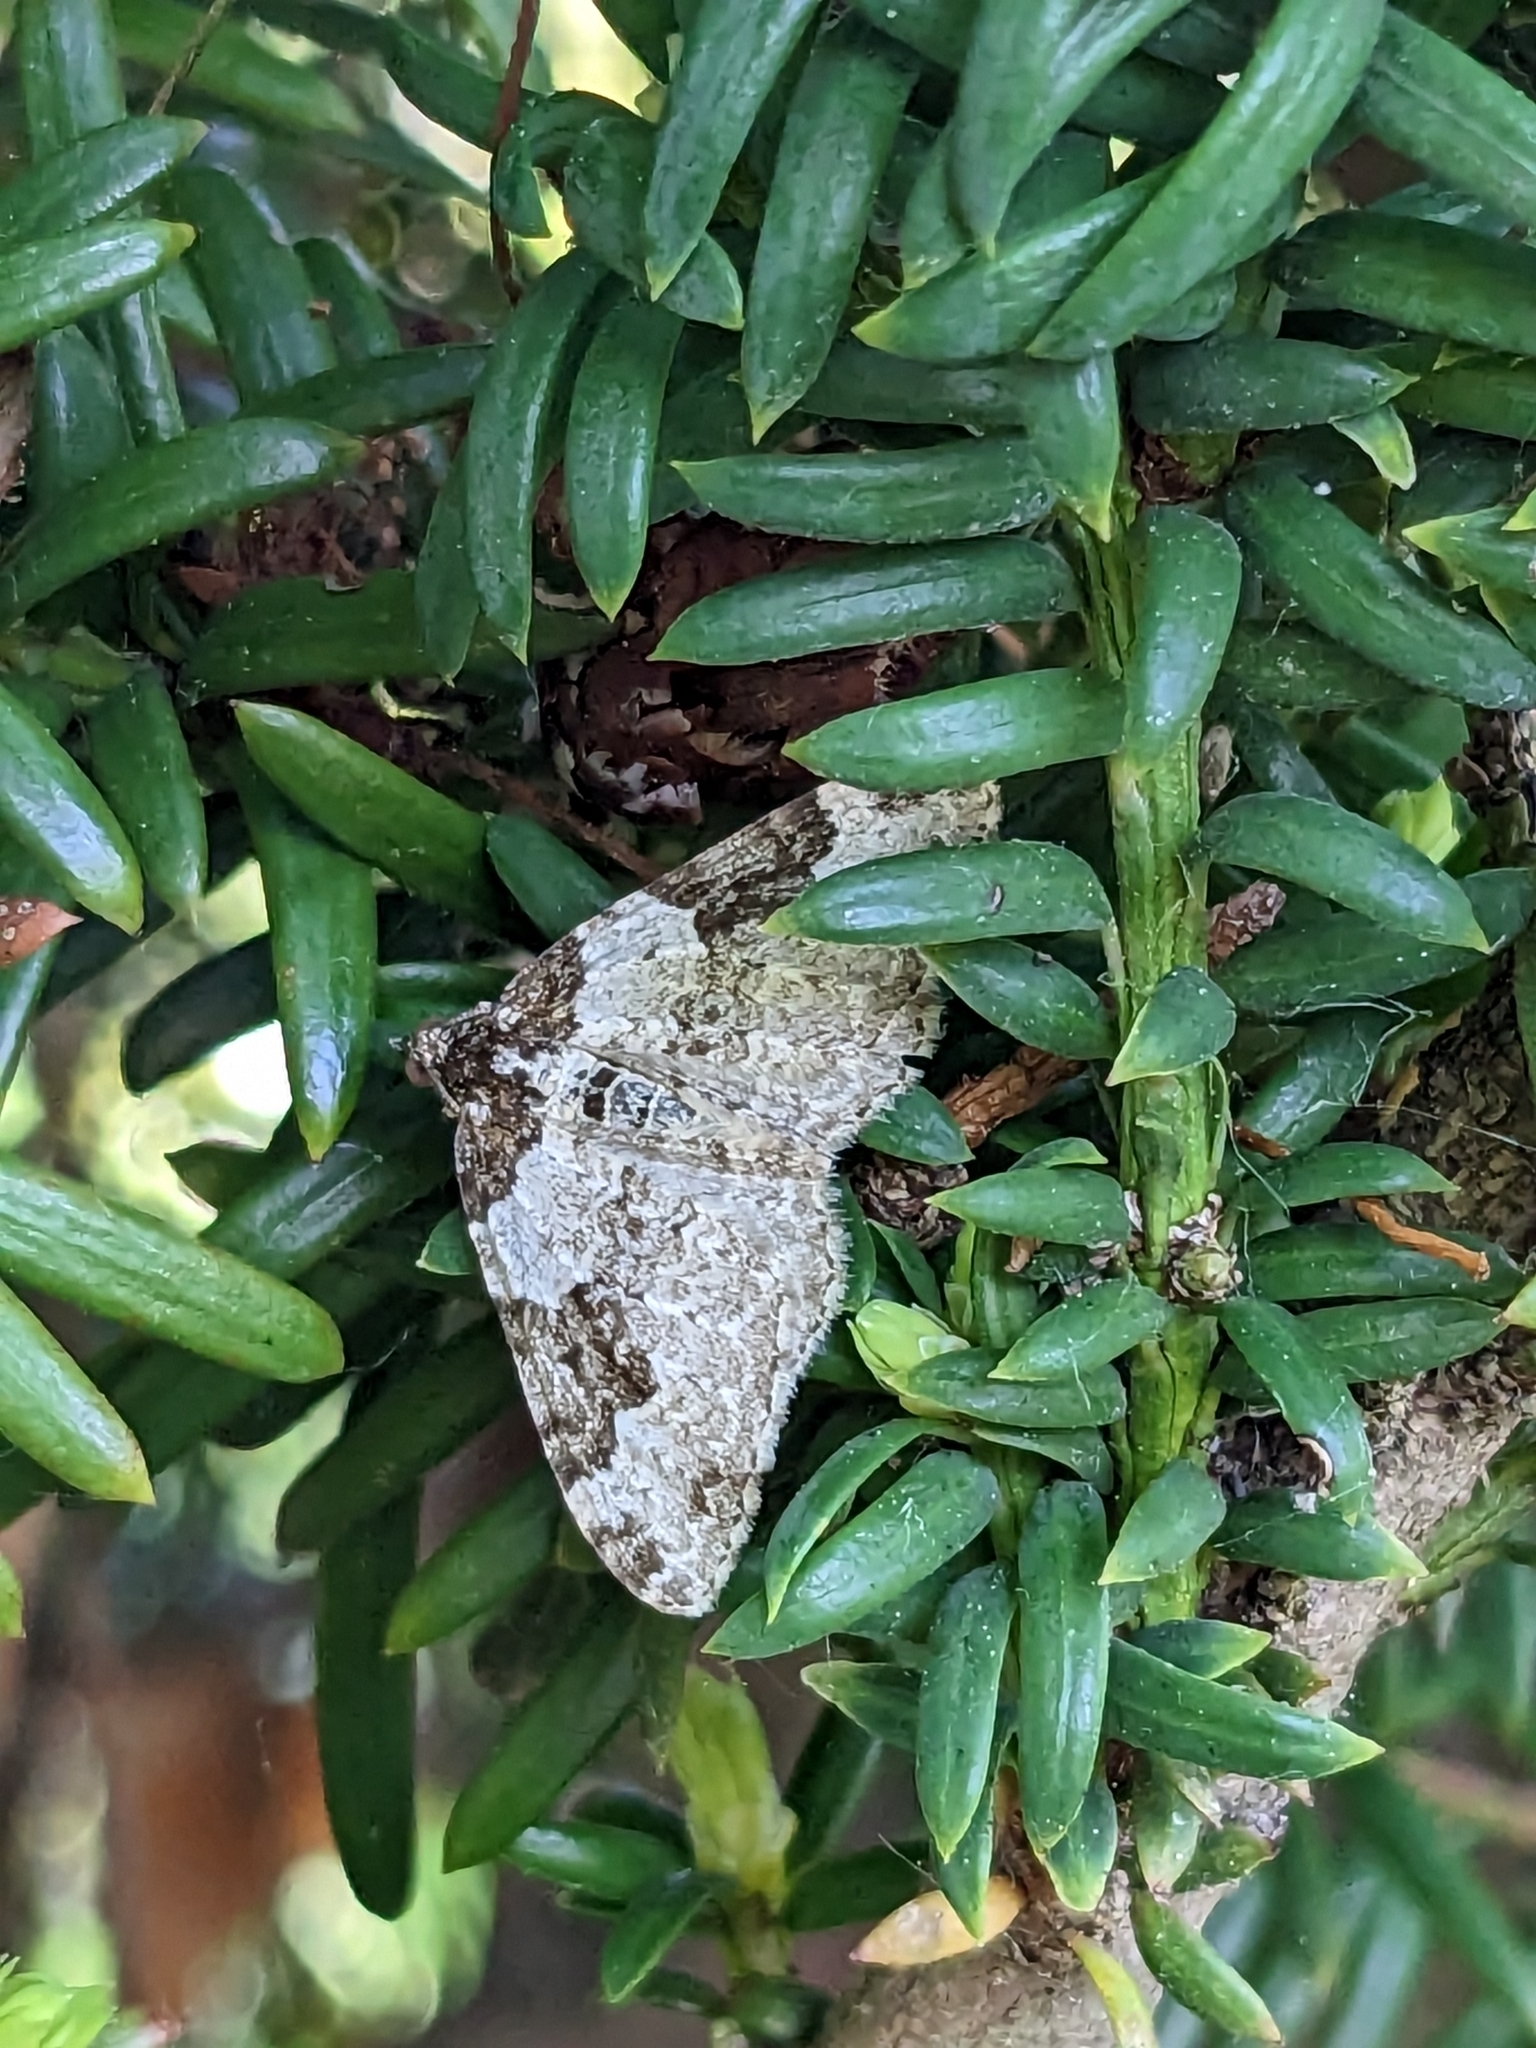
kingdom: Animalia
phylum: Arthropoda
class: Insecta
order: Lepidoptera
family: Geometridae
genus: Xanthorhoe
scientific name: Xanthorhoe fluctuata
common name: Garden carpet
